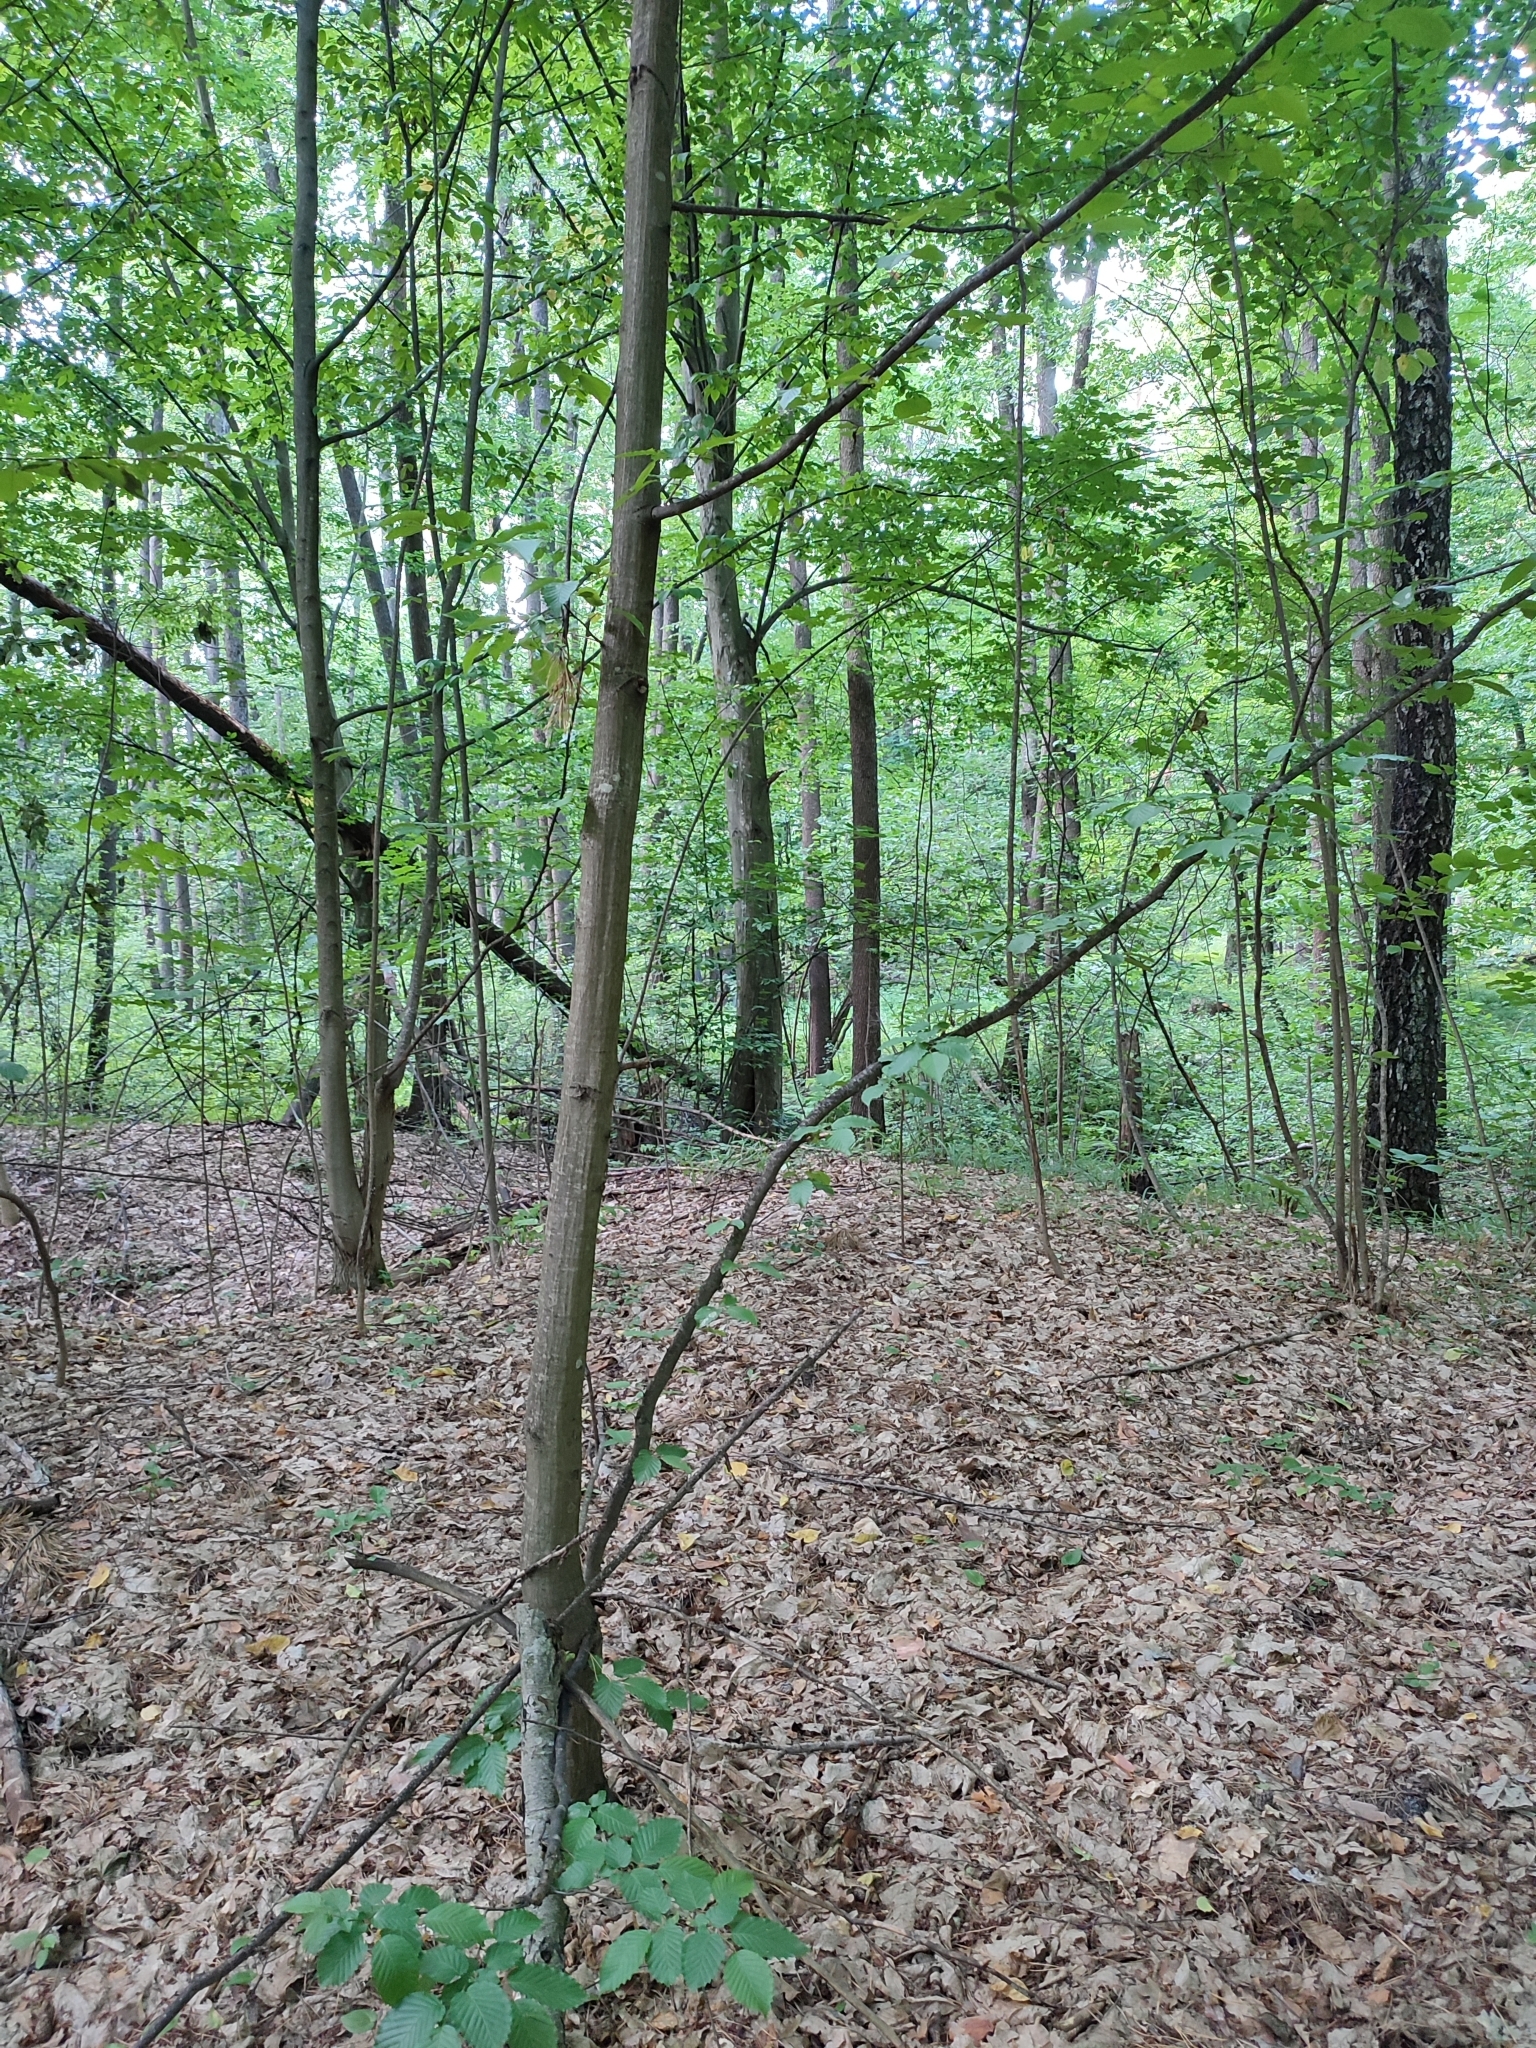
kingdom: Plantae
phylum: Tracheophyta
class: Magnoliopsida
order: Fagales
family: Betulaceae
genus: Carpinus
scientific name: Carpinus betulus
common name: Hornbeam
